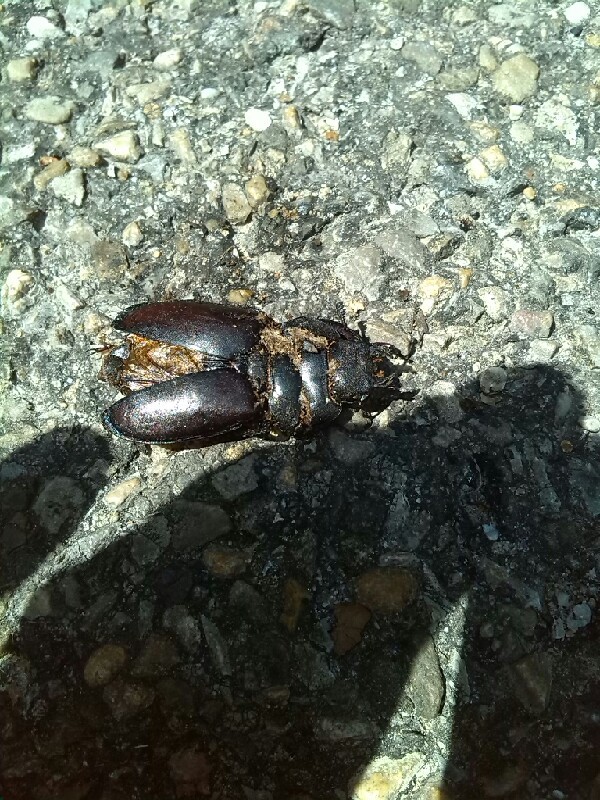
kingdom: Animalia
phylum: Arthropoda
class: Insecta
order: Coleoptera
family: Lucanidae
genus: Lucanus
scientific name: Lucanus cervus
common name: Stag beetle
